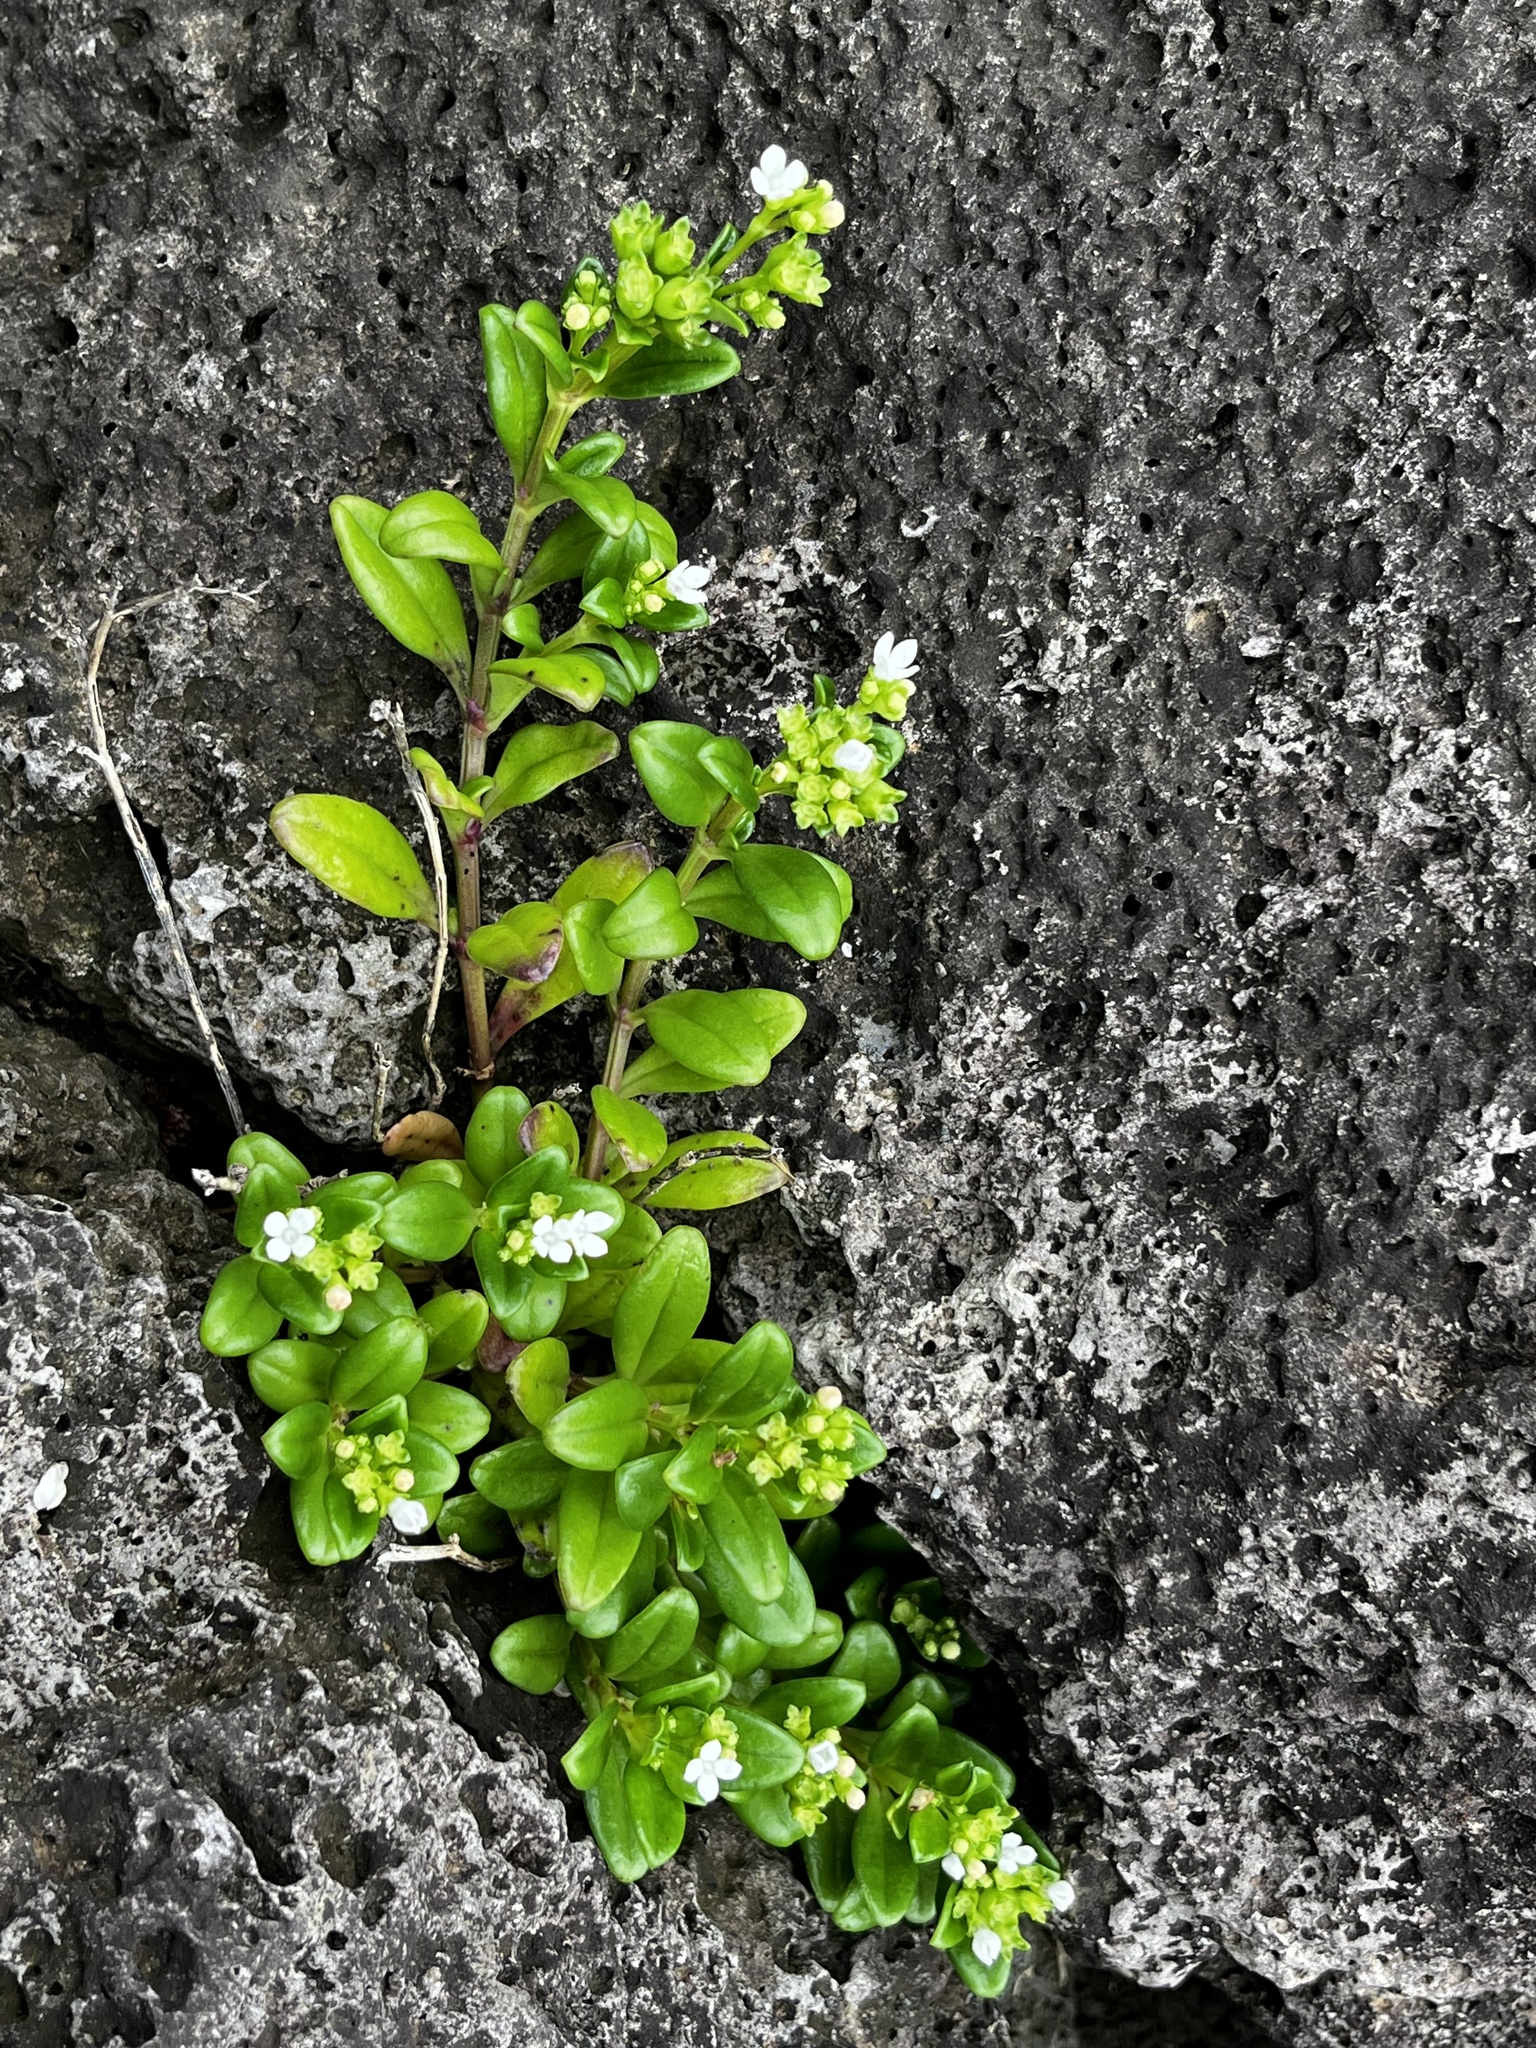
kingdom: Plantae
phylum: Tracheophyta
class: Magnoliopsida
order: Gentianales
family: Rubiaceae
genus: Leptopetalum
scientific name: Leptopetalum strigulosum
